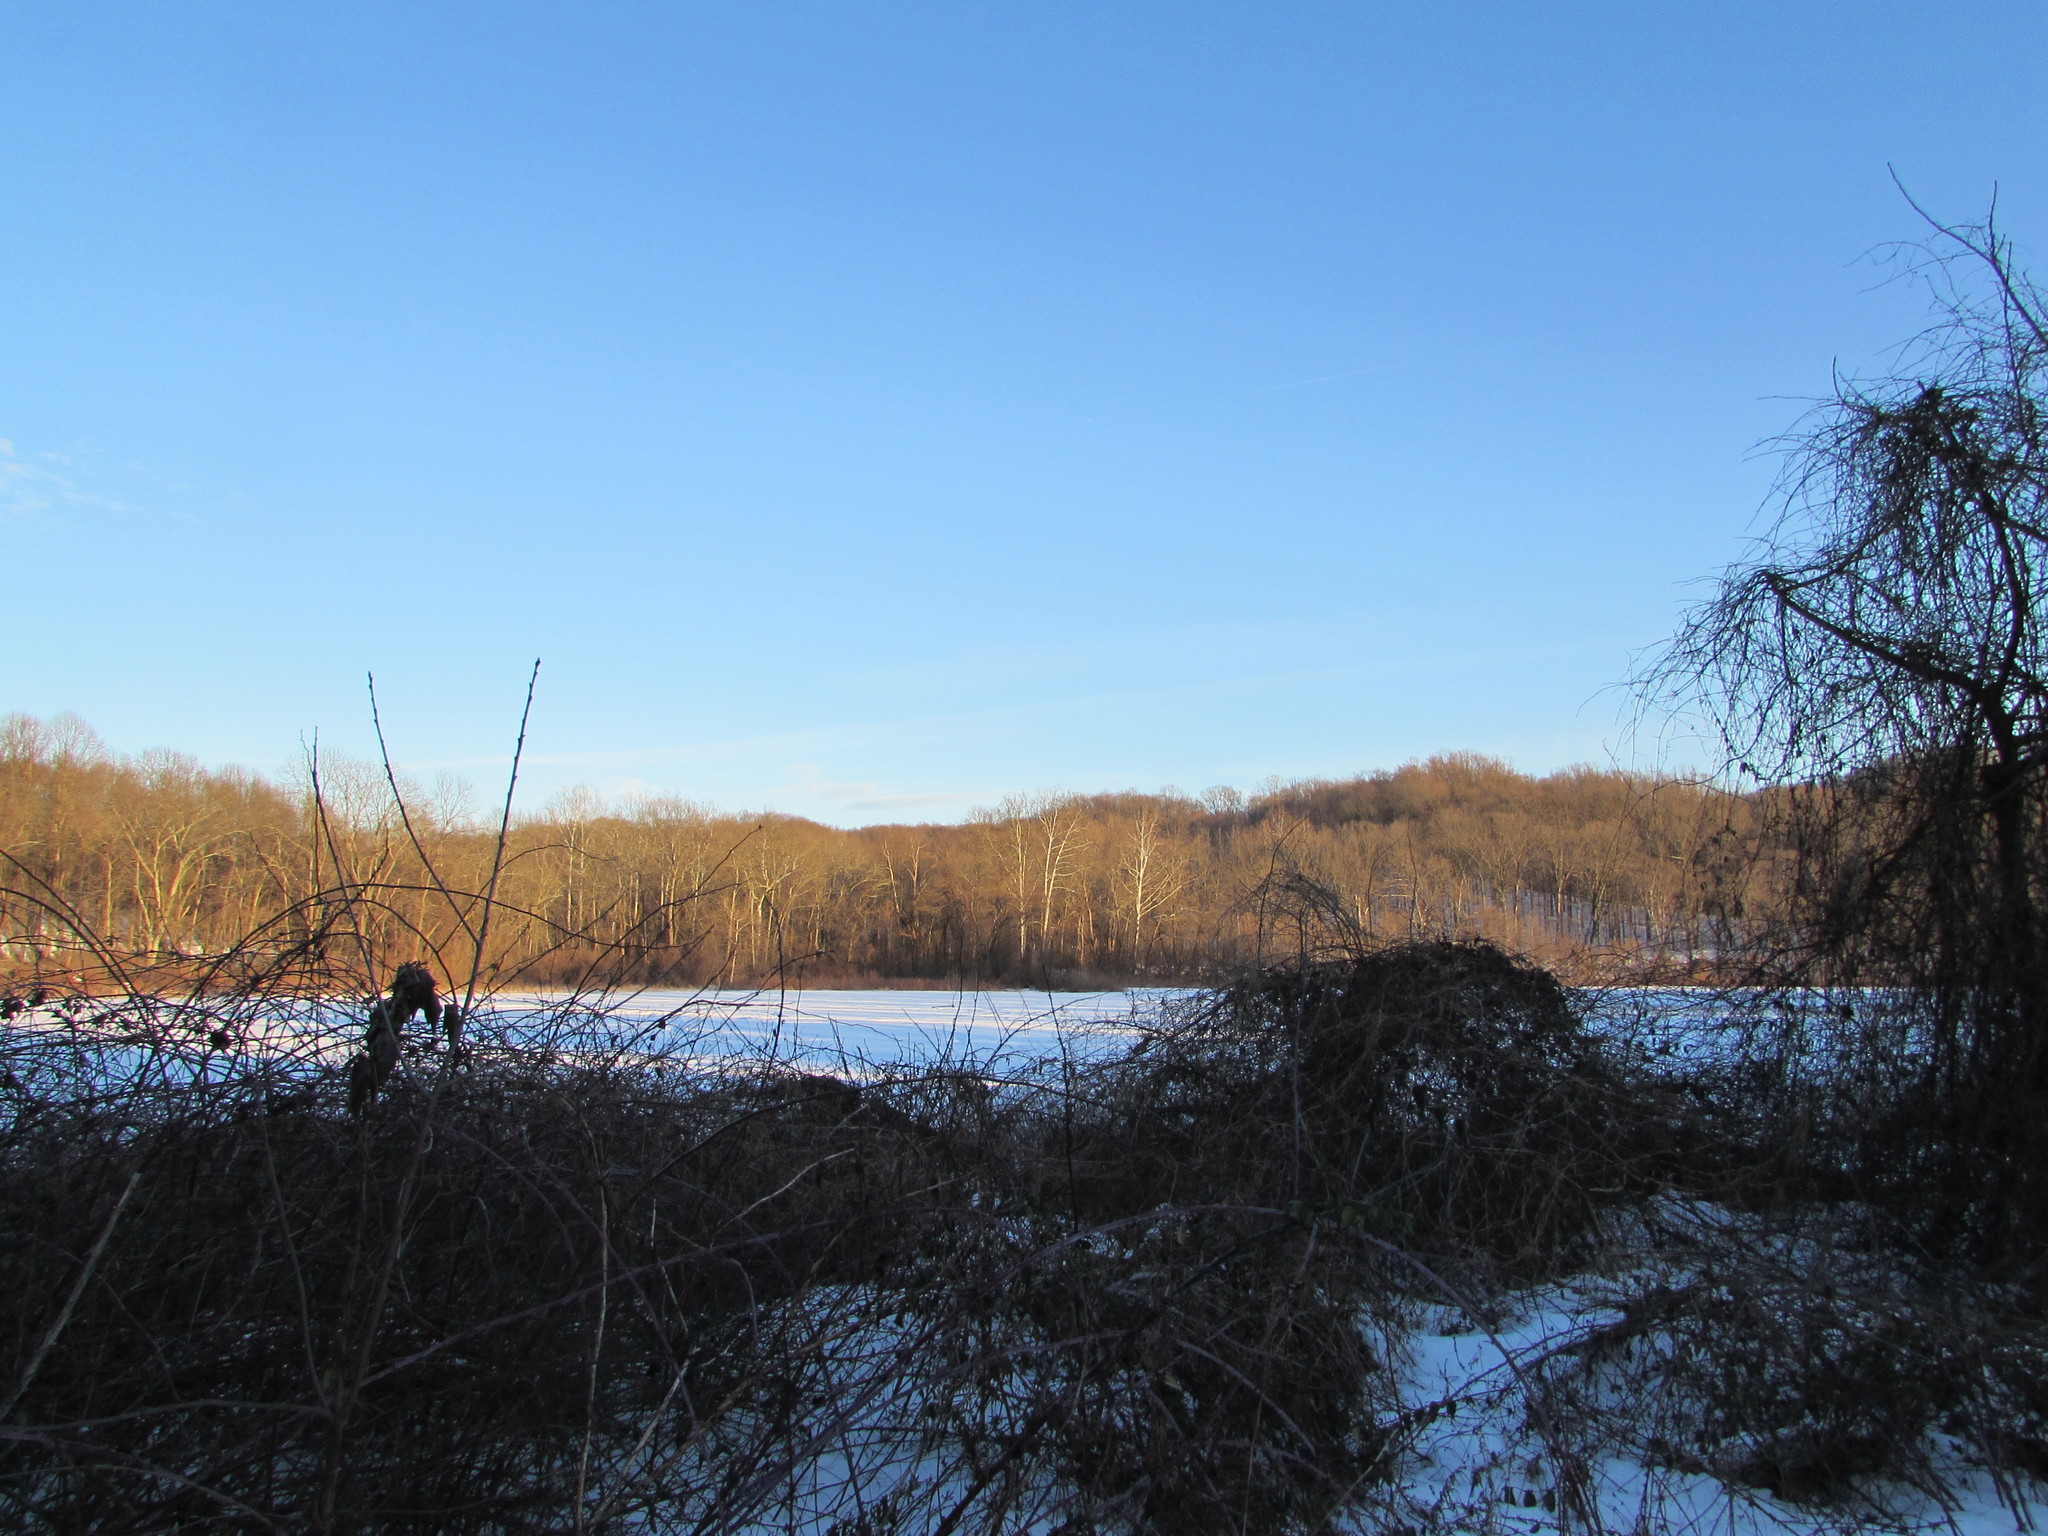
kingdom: Plantae
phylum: Tracheophyta
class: Magnoliopsida
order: Proteales
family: Platanaceae
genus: Platanus
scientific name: Platanus occidentalis
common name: American sycamore
